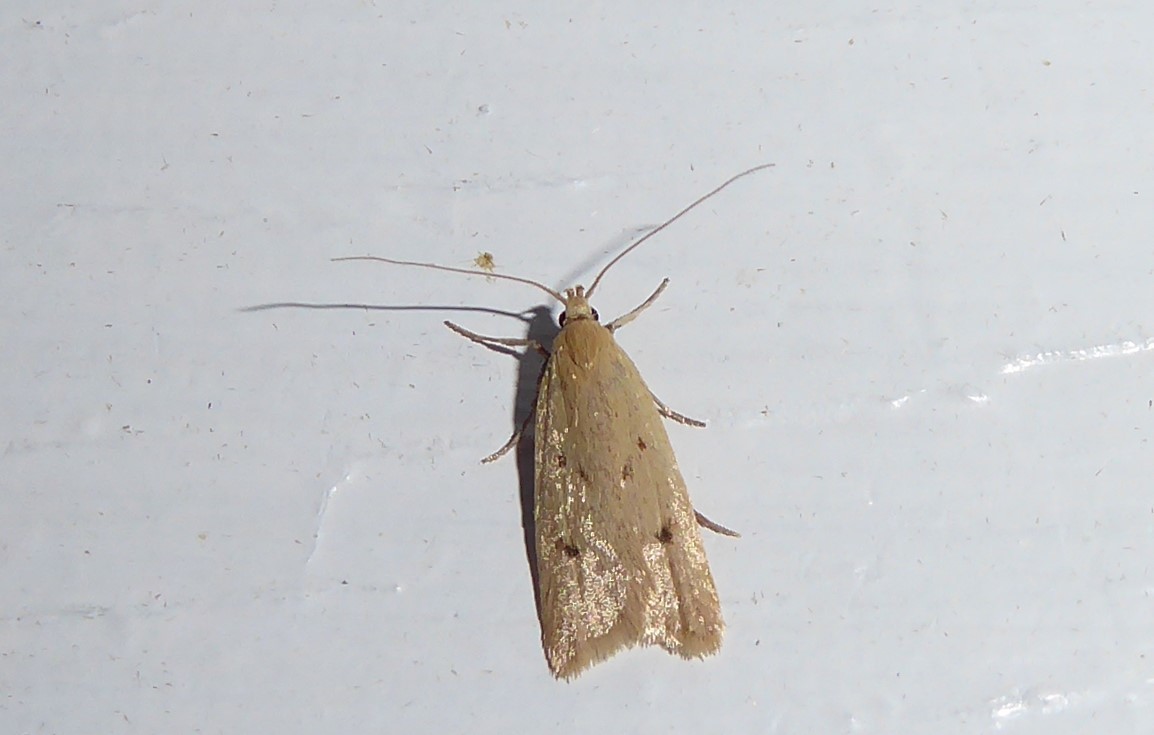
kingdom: Animalia
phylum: Arthropoda
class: Insecta
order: Lepidoptera
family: Oecophoridae
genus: Gymnobathra
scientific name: Gymnobathra sarcoxantha
